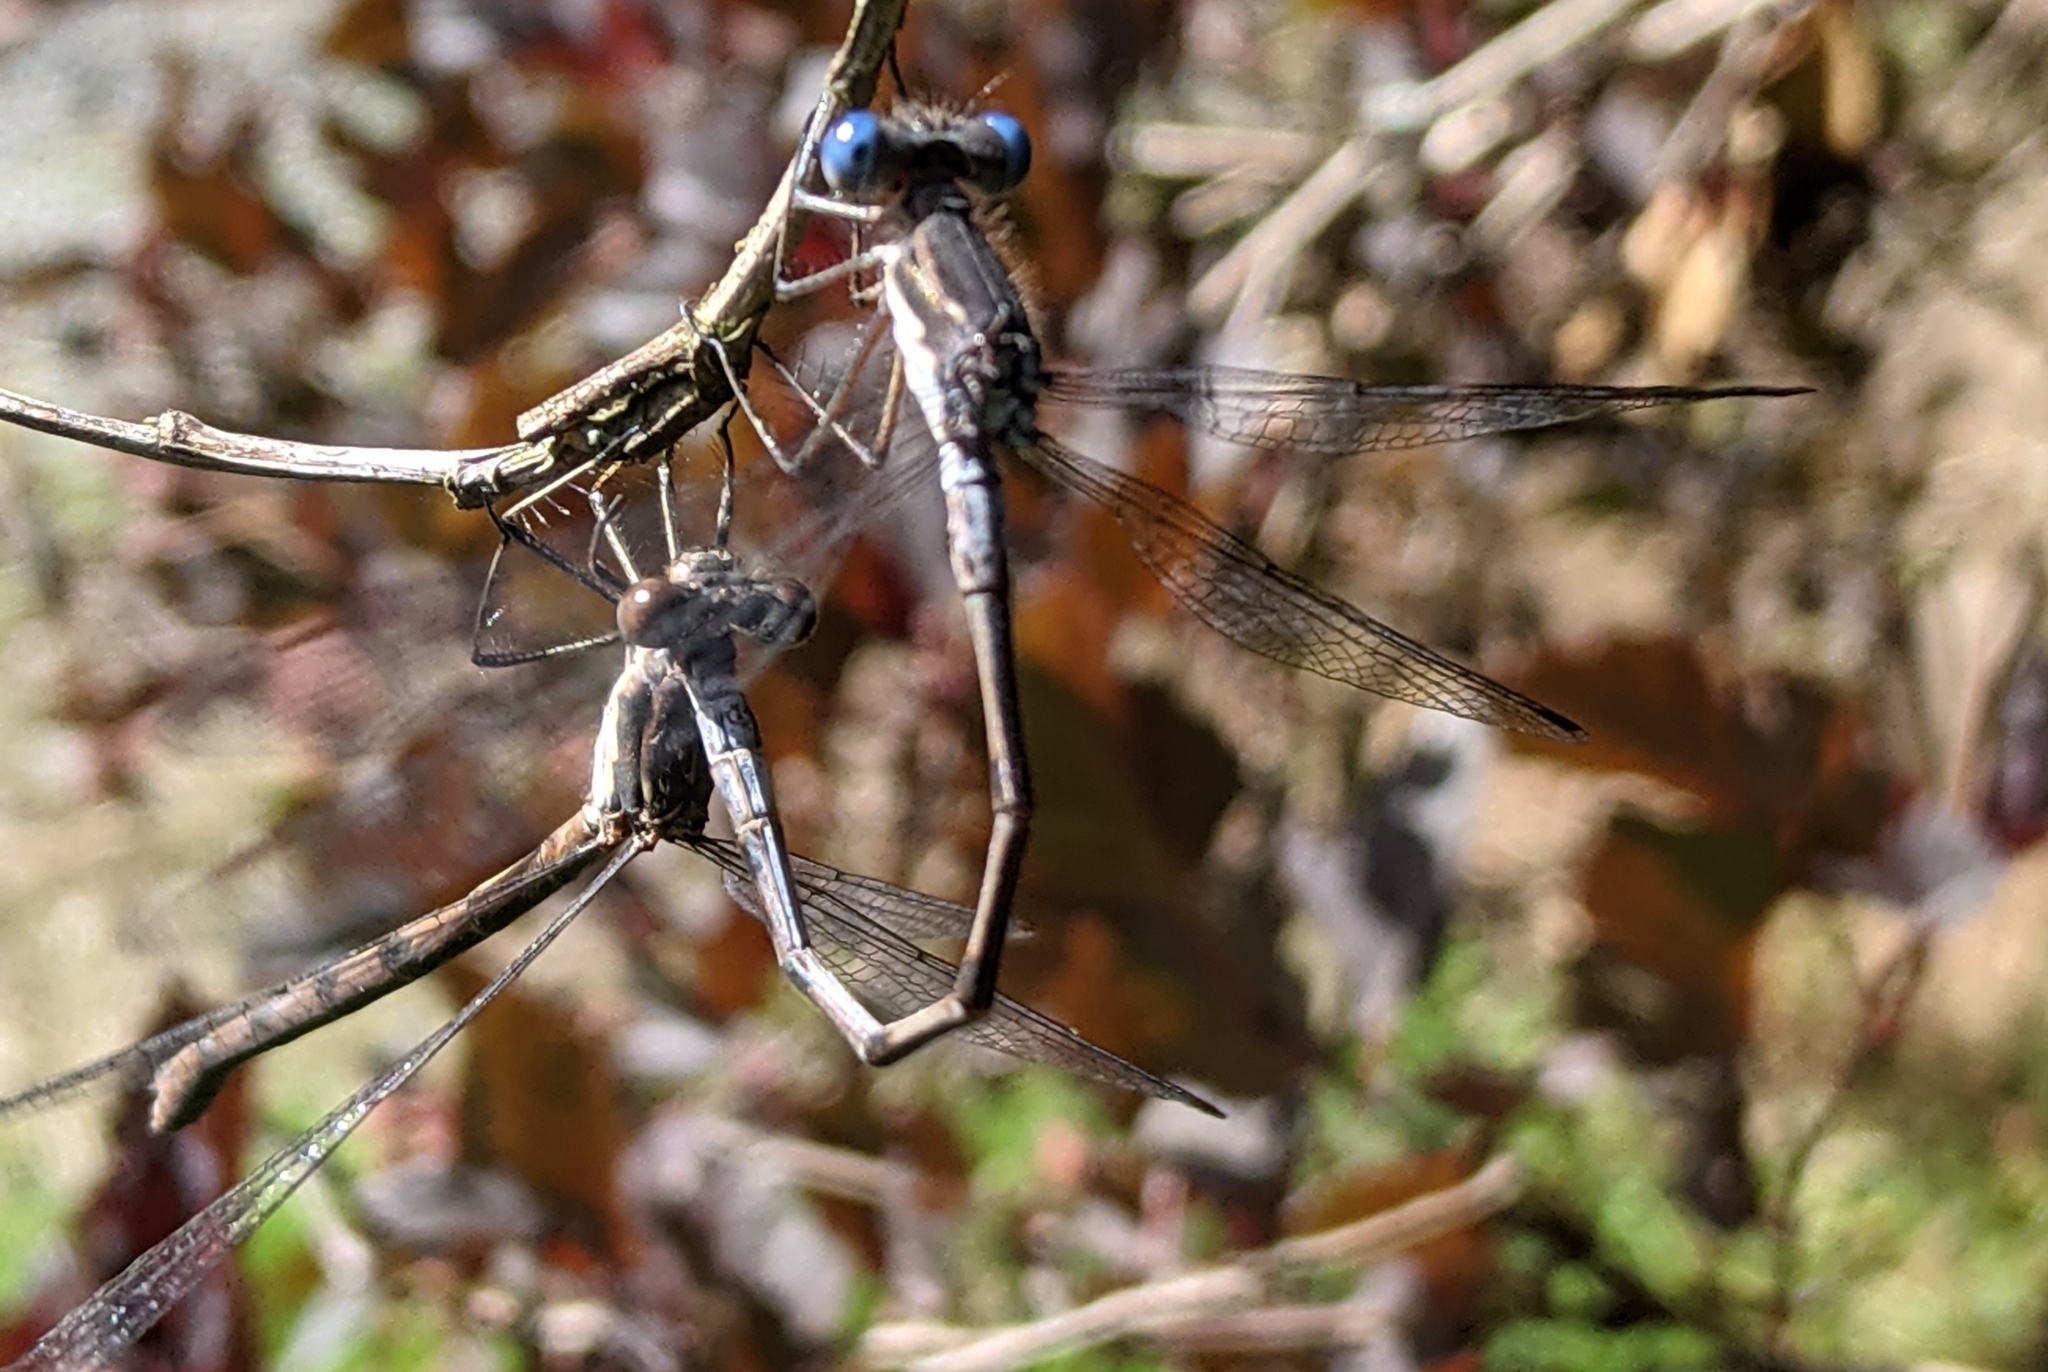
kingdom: Animalia
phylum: Arthropoda
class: Insecta
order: Odonata
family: Lestidae
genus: Lestes
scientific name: Lestes congener
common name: Spotted spreadwing
